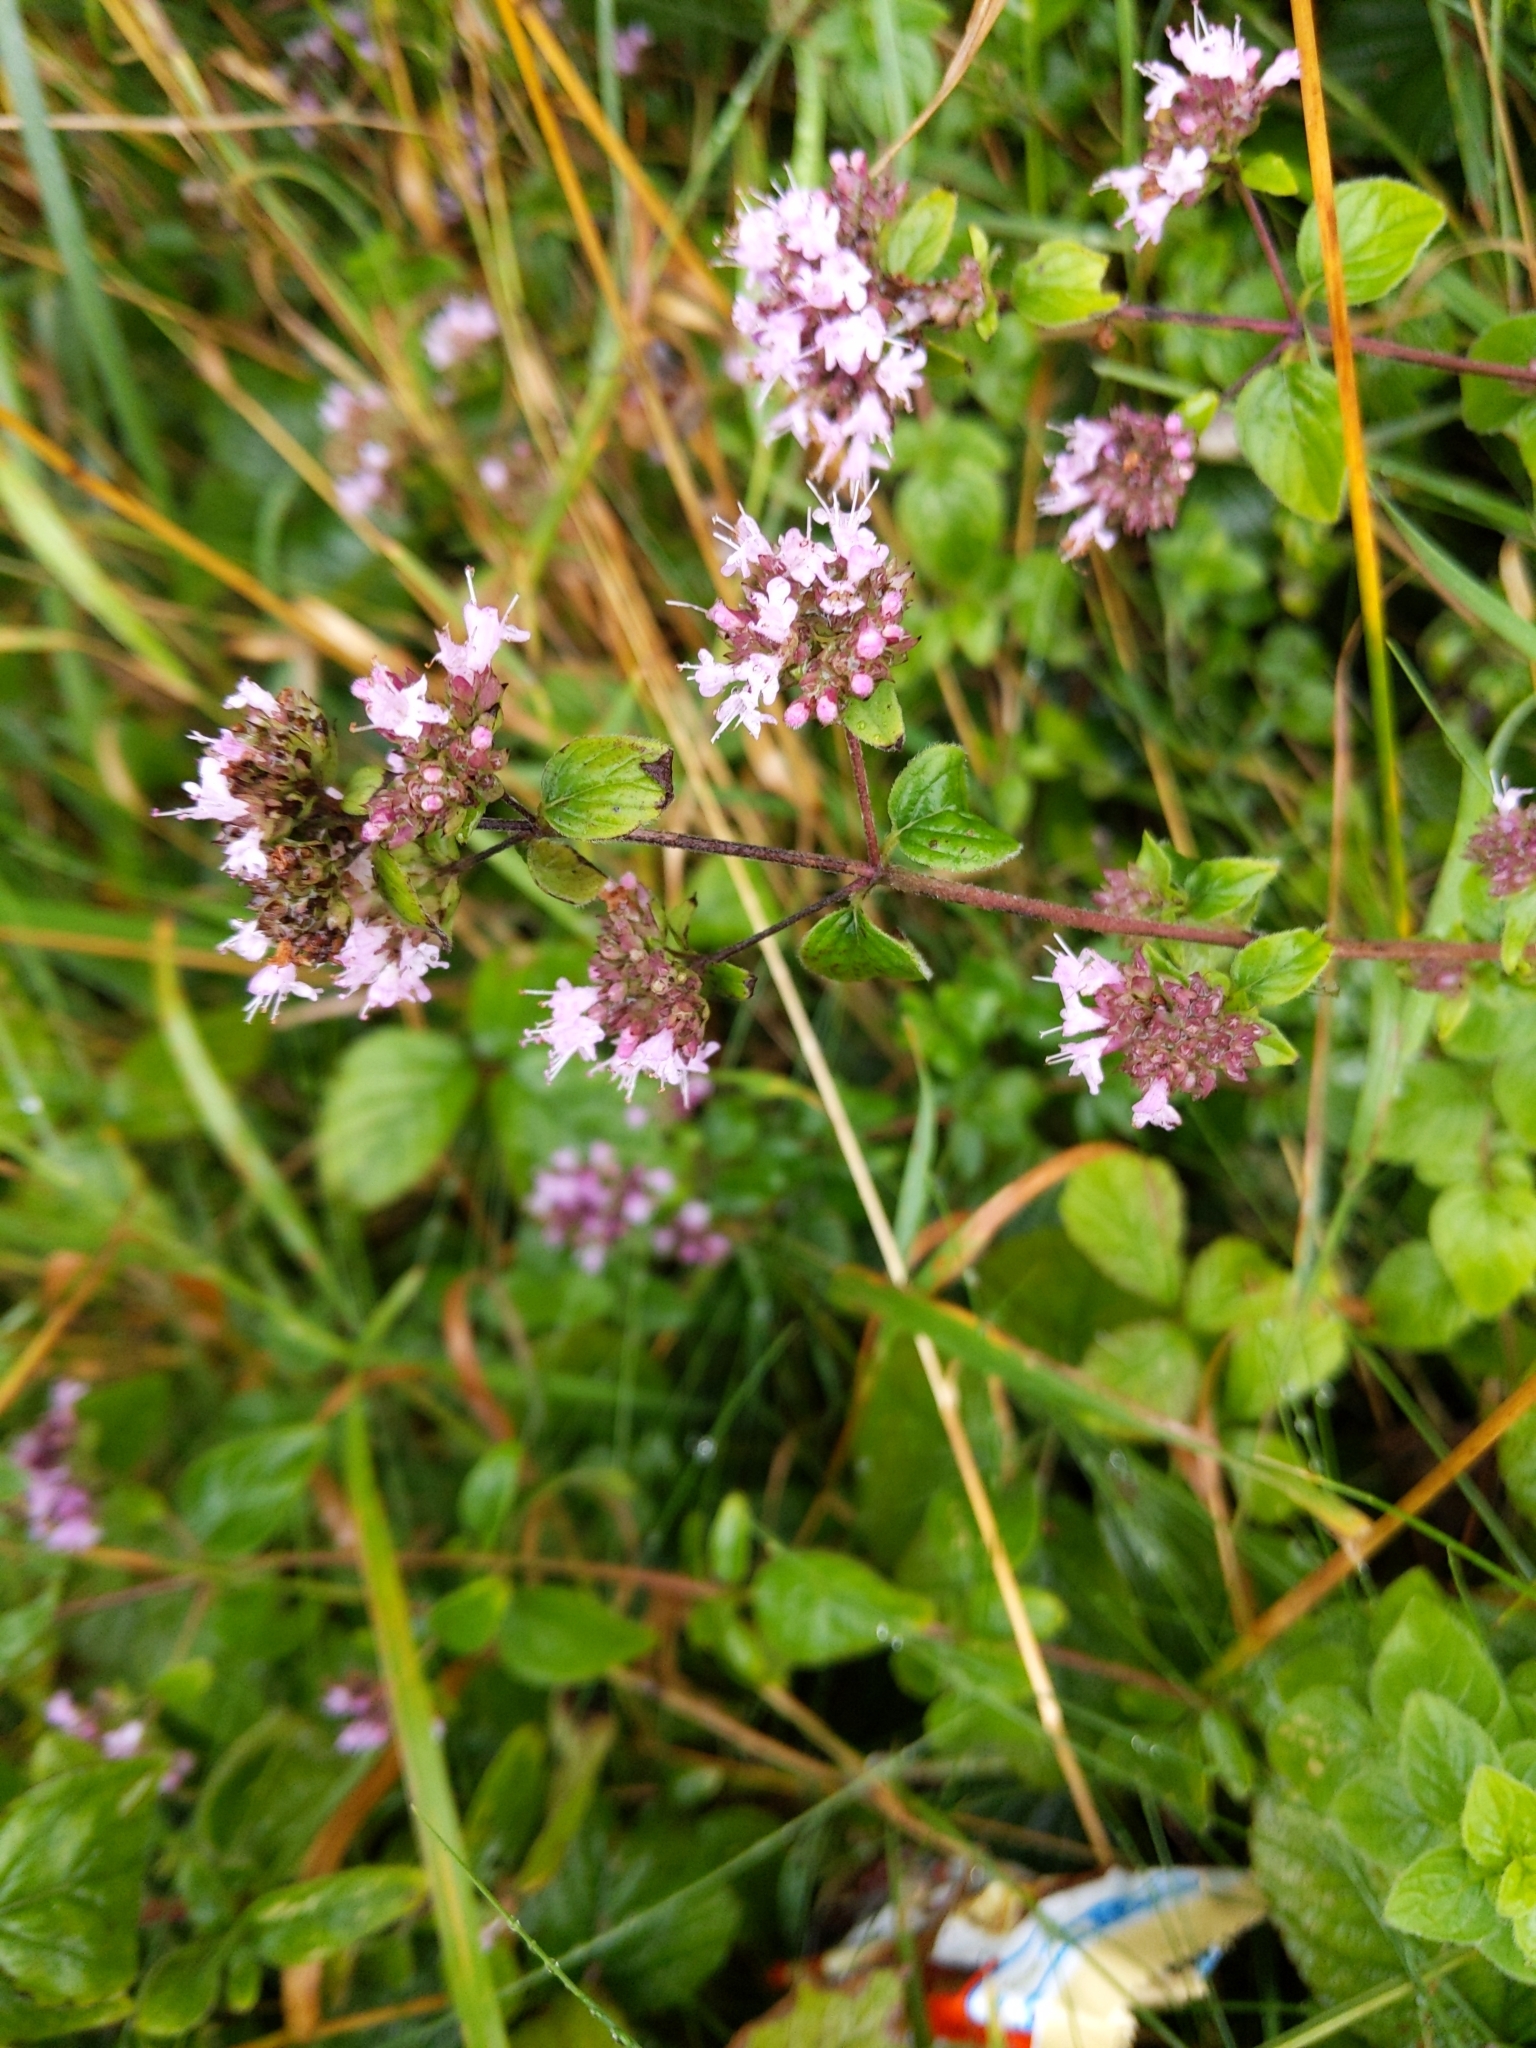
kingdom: Plantae
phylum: Tracheophyta
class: Magnoliopsida
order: Lamiales
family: Lamiaceae
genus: Origanum
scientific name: Origanum vulgare
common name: Wild marjoram
